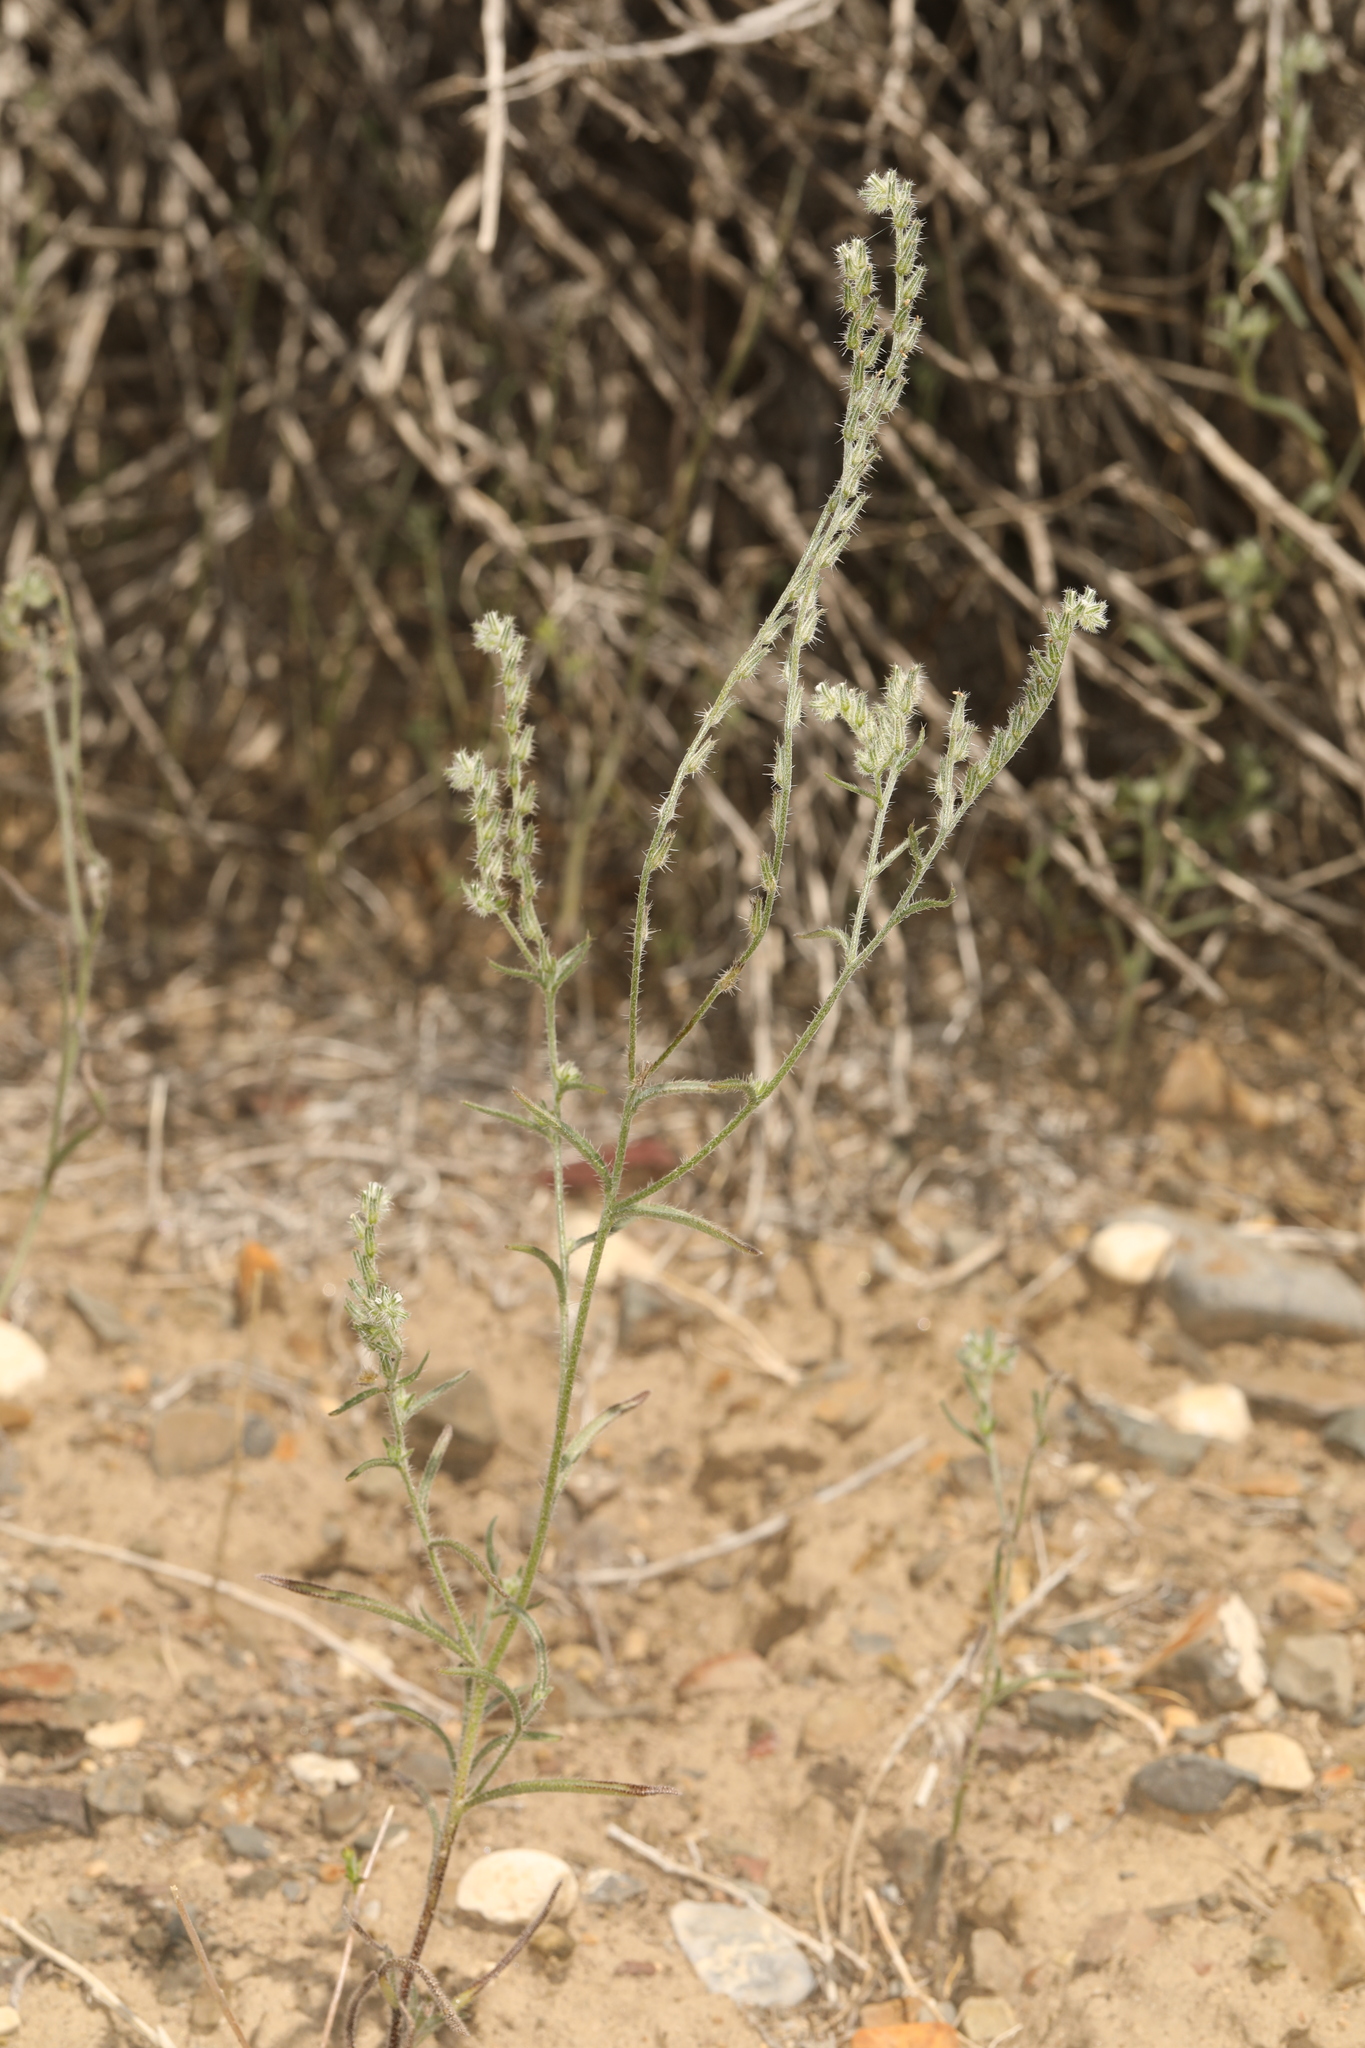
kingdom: Plantae
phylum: Tracheophyta
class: Magnoliopsida
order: Boraginales
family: Boraginaceae
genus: Cryptantha
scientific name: Cryptantha scoparia
